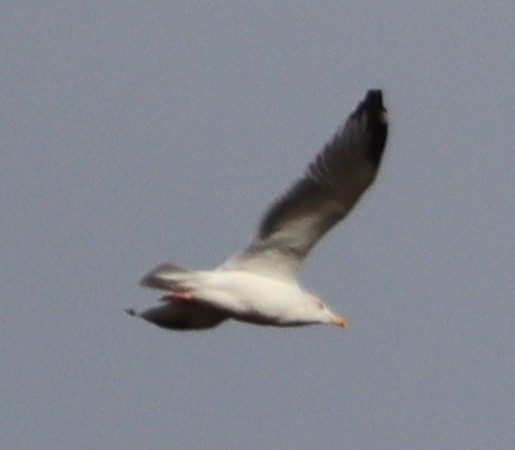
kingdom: Animalia
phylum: Chordata
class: Aves
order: Charadriiformes
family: Laridae
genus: Larus
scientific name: Larus argentatus
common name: Herring gull
